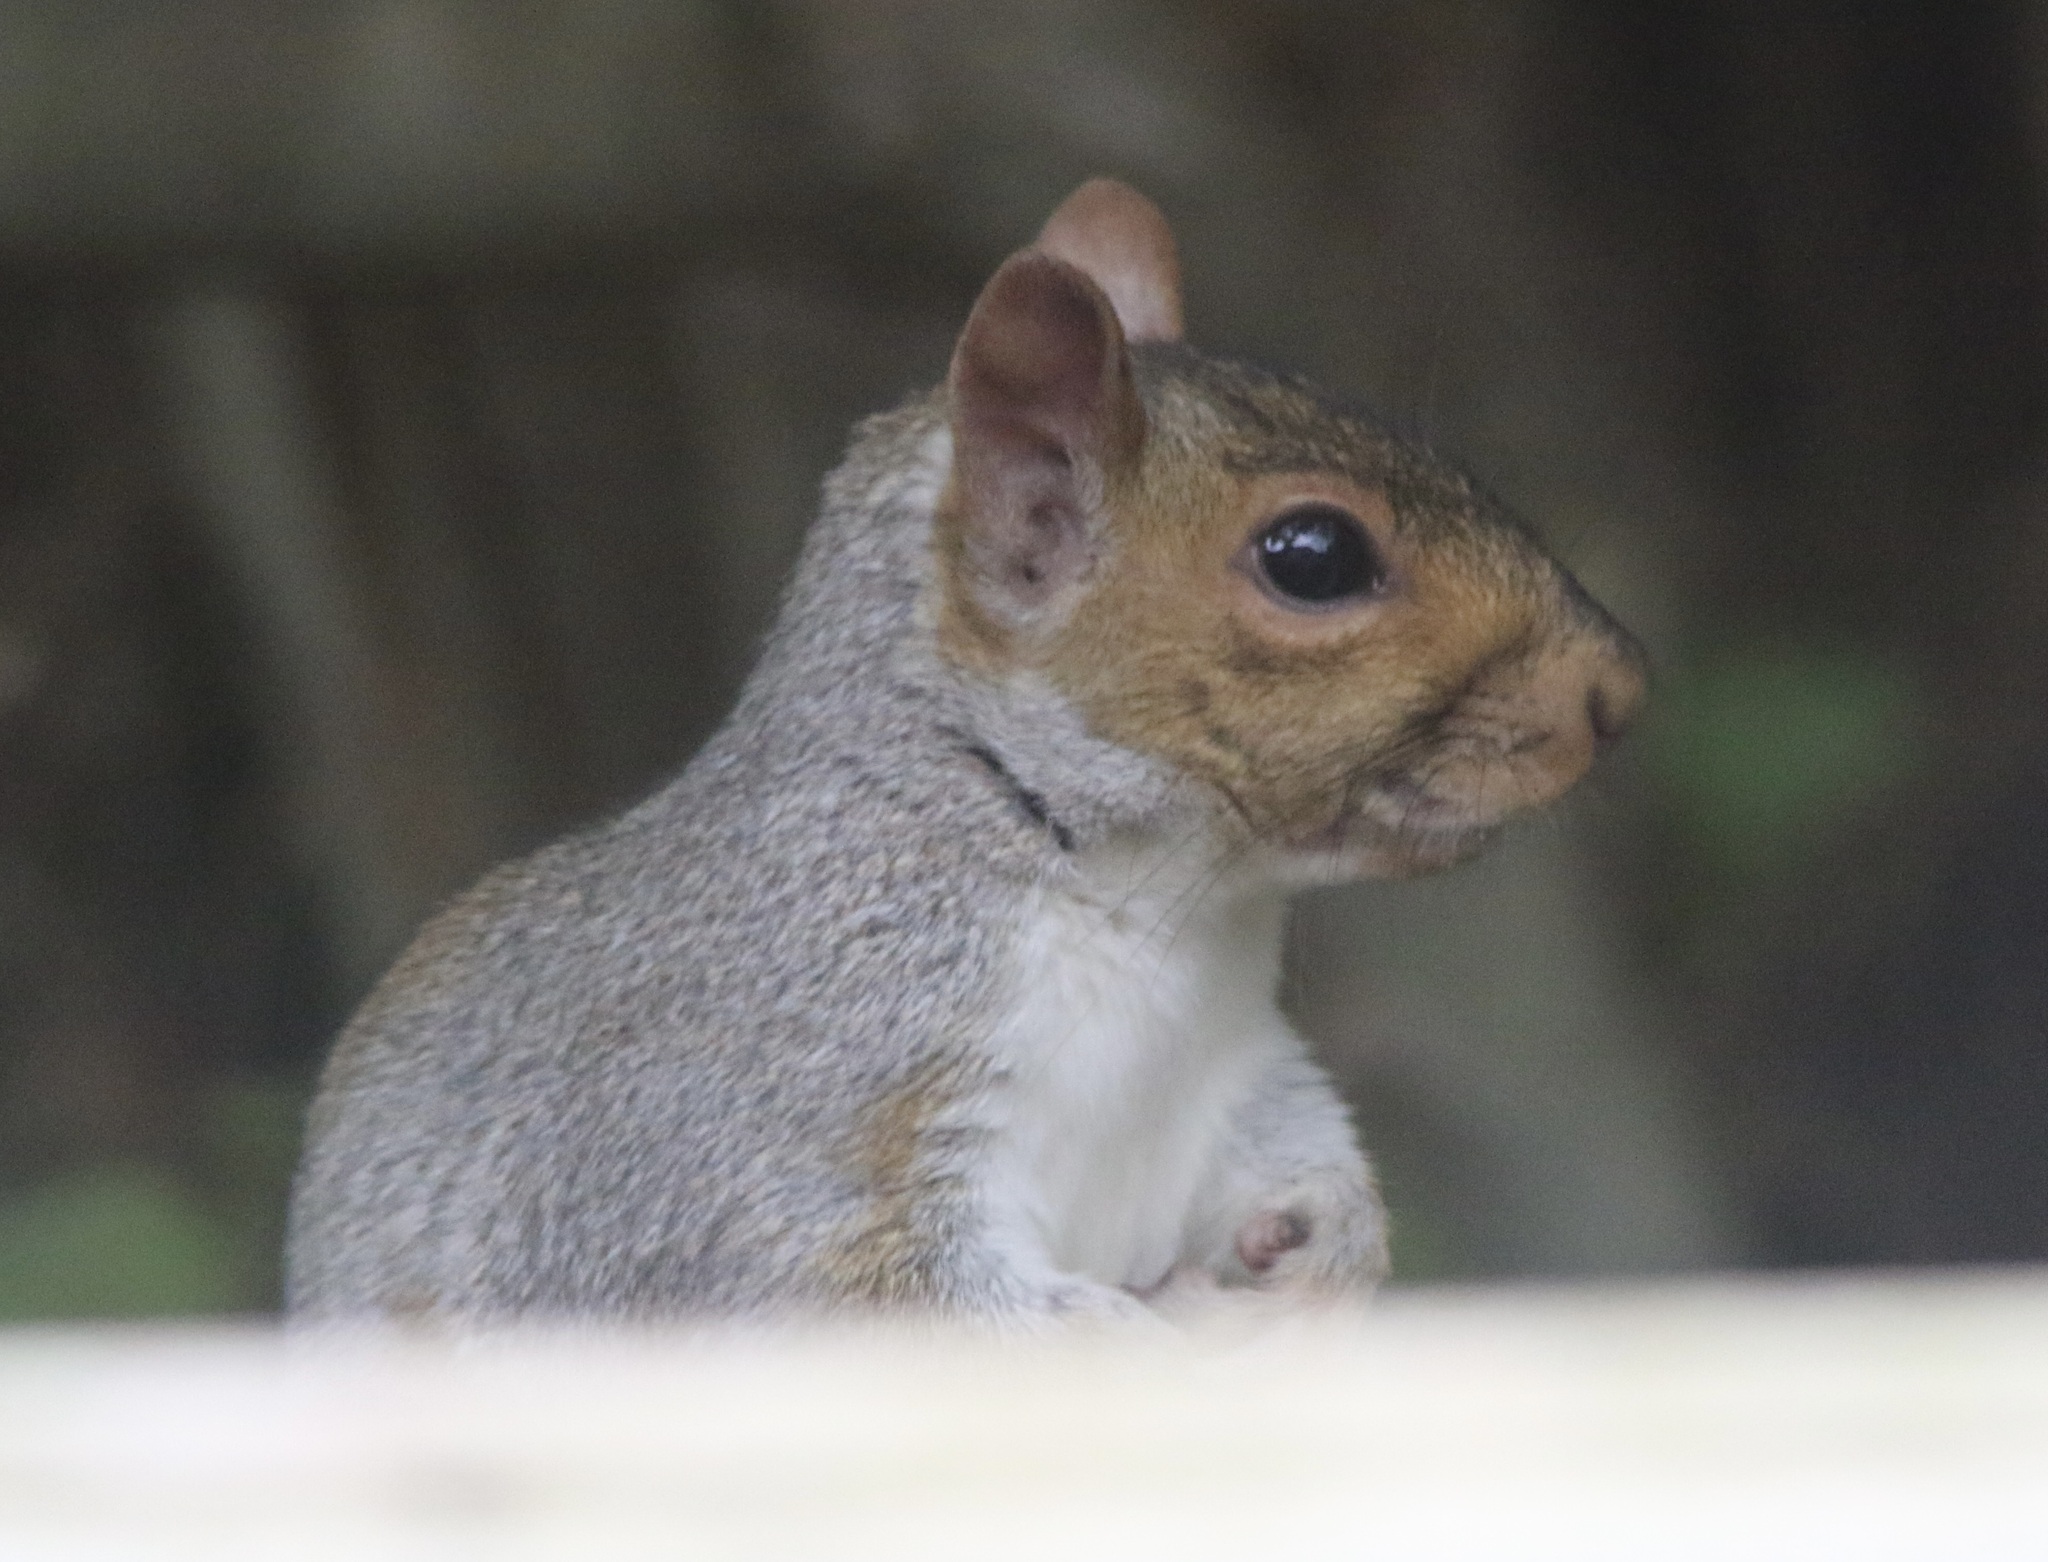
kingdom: Animalia
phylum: Chordata
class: Mammalia
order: Rodentia
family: Sciuridae
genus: Sciurus
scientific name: Sciurus carolinensis
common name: Eastern gray squirrel
